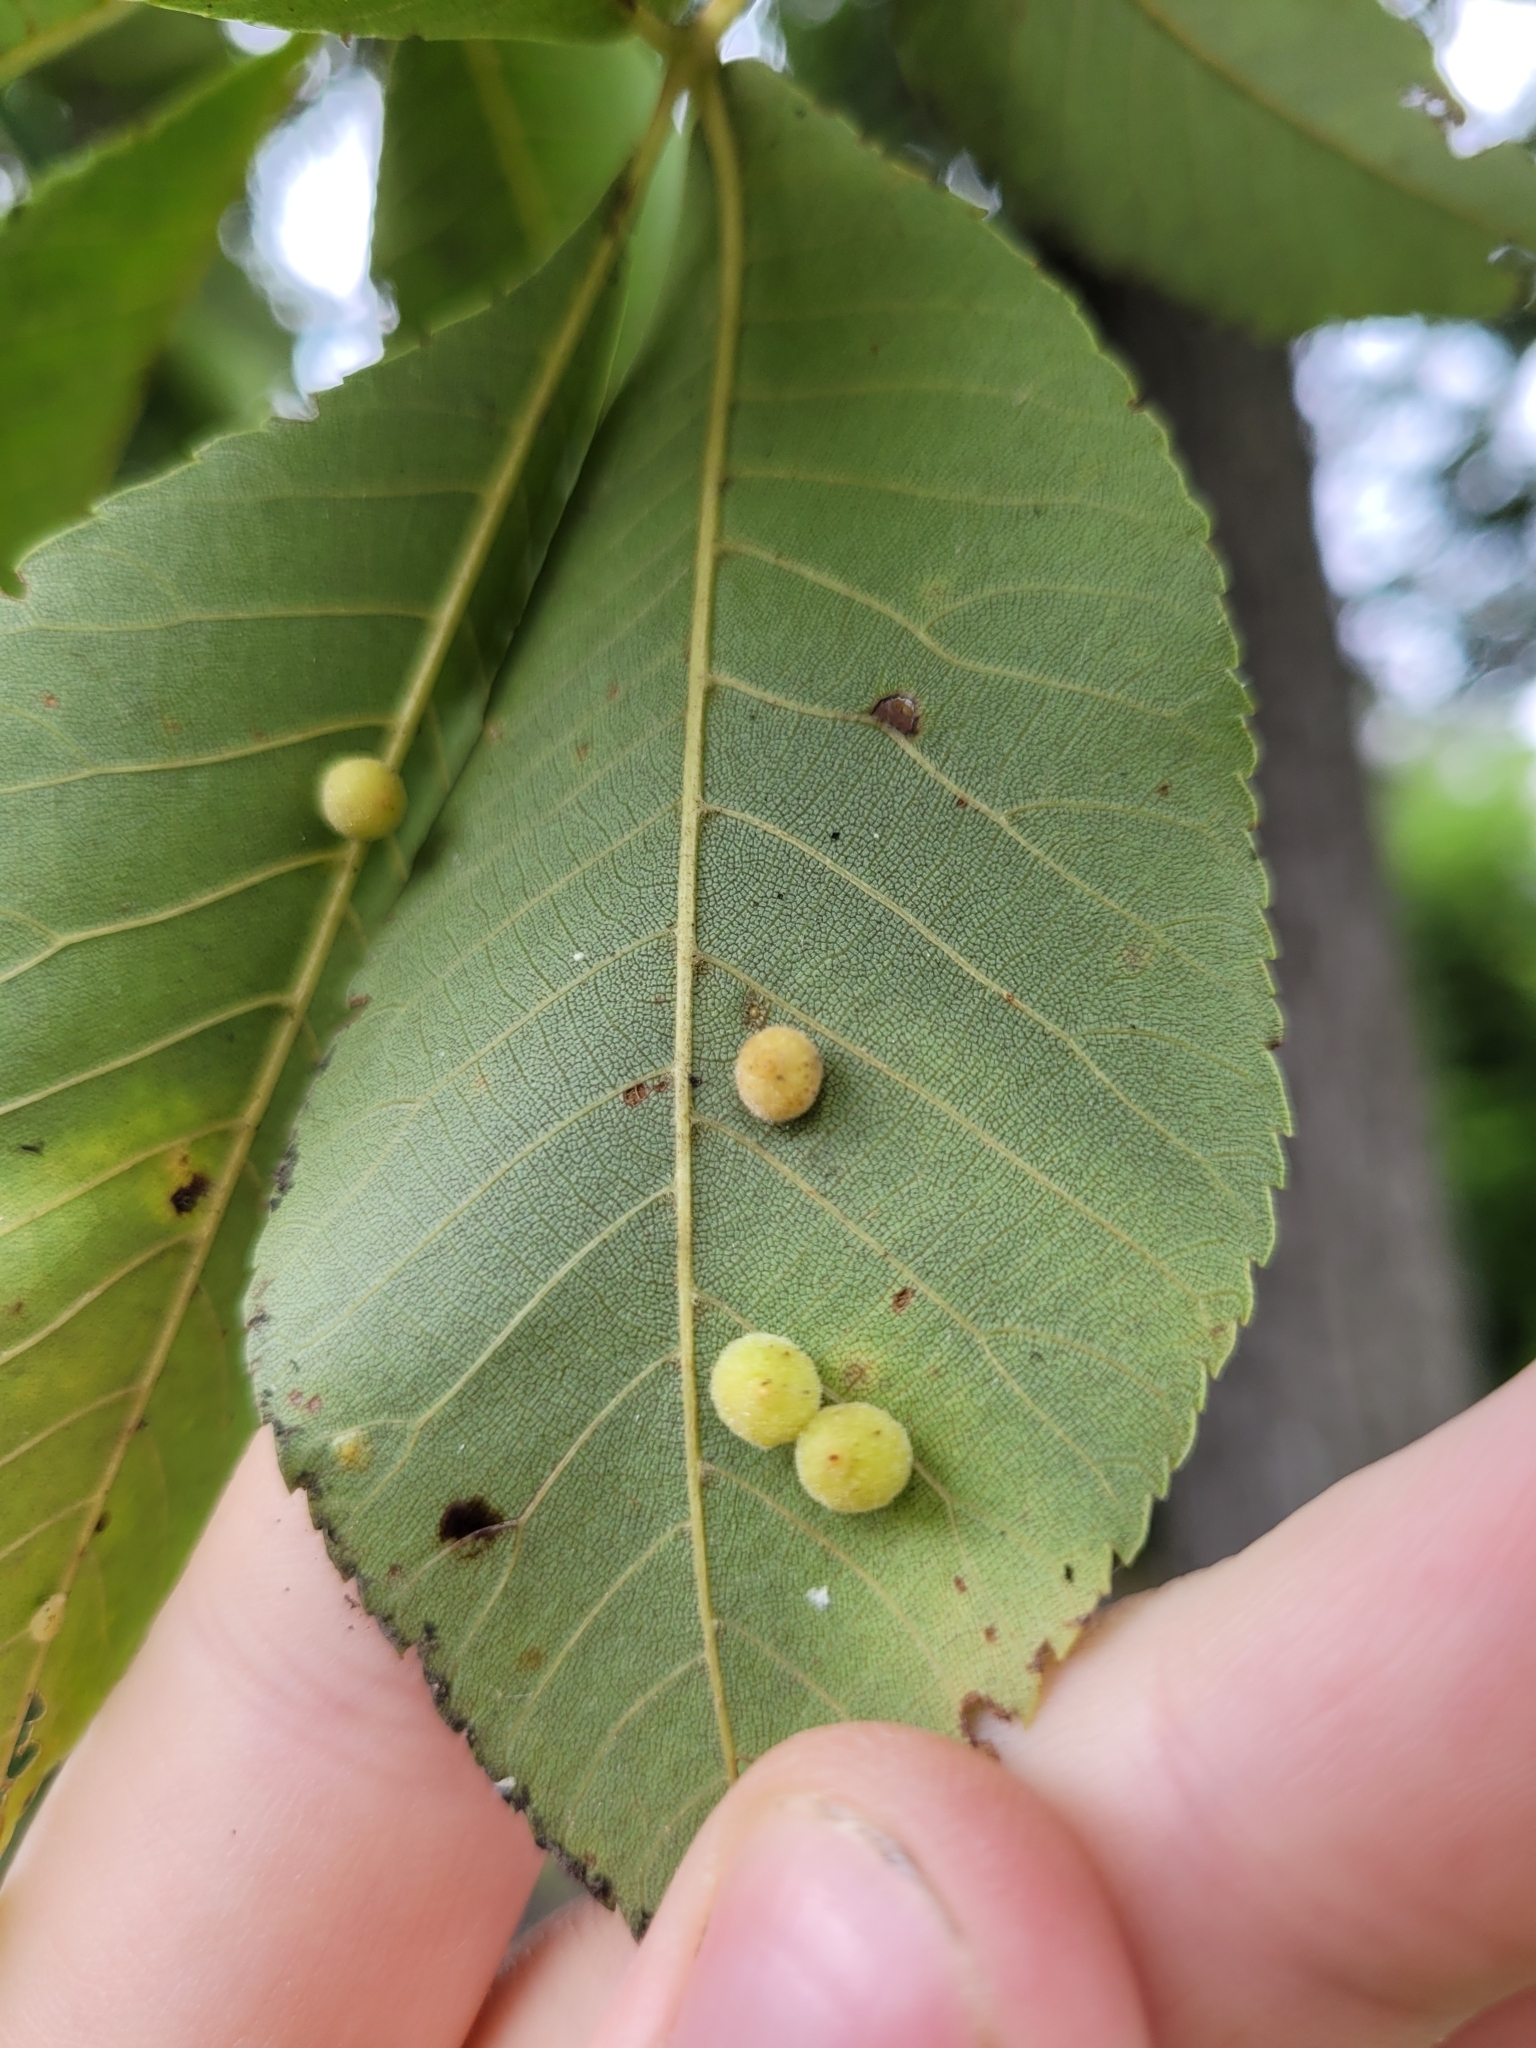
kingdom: Animalia
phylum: Arthropoda
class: Insecta
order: Diptera
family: Cecidomyiidae
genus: Caryomyia
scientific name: Caryomyia tuberidolium
